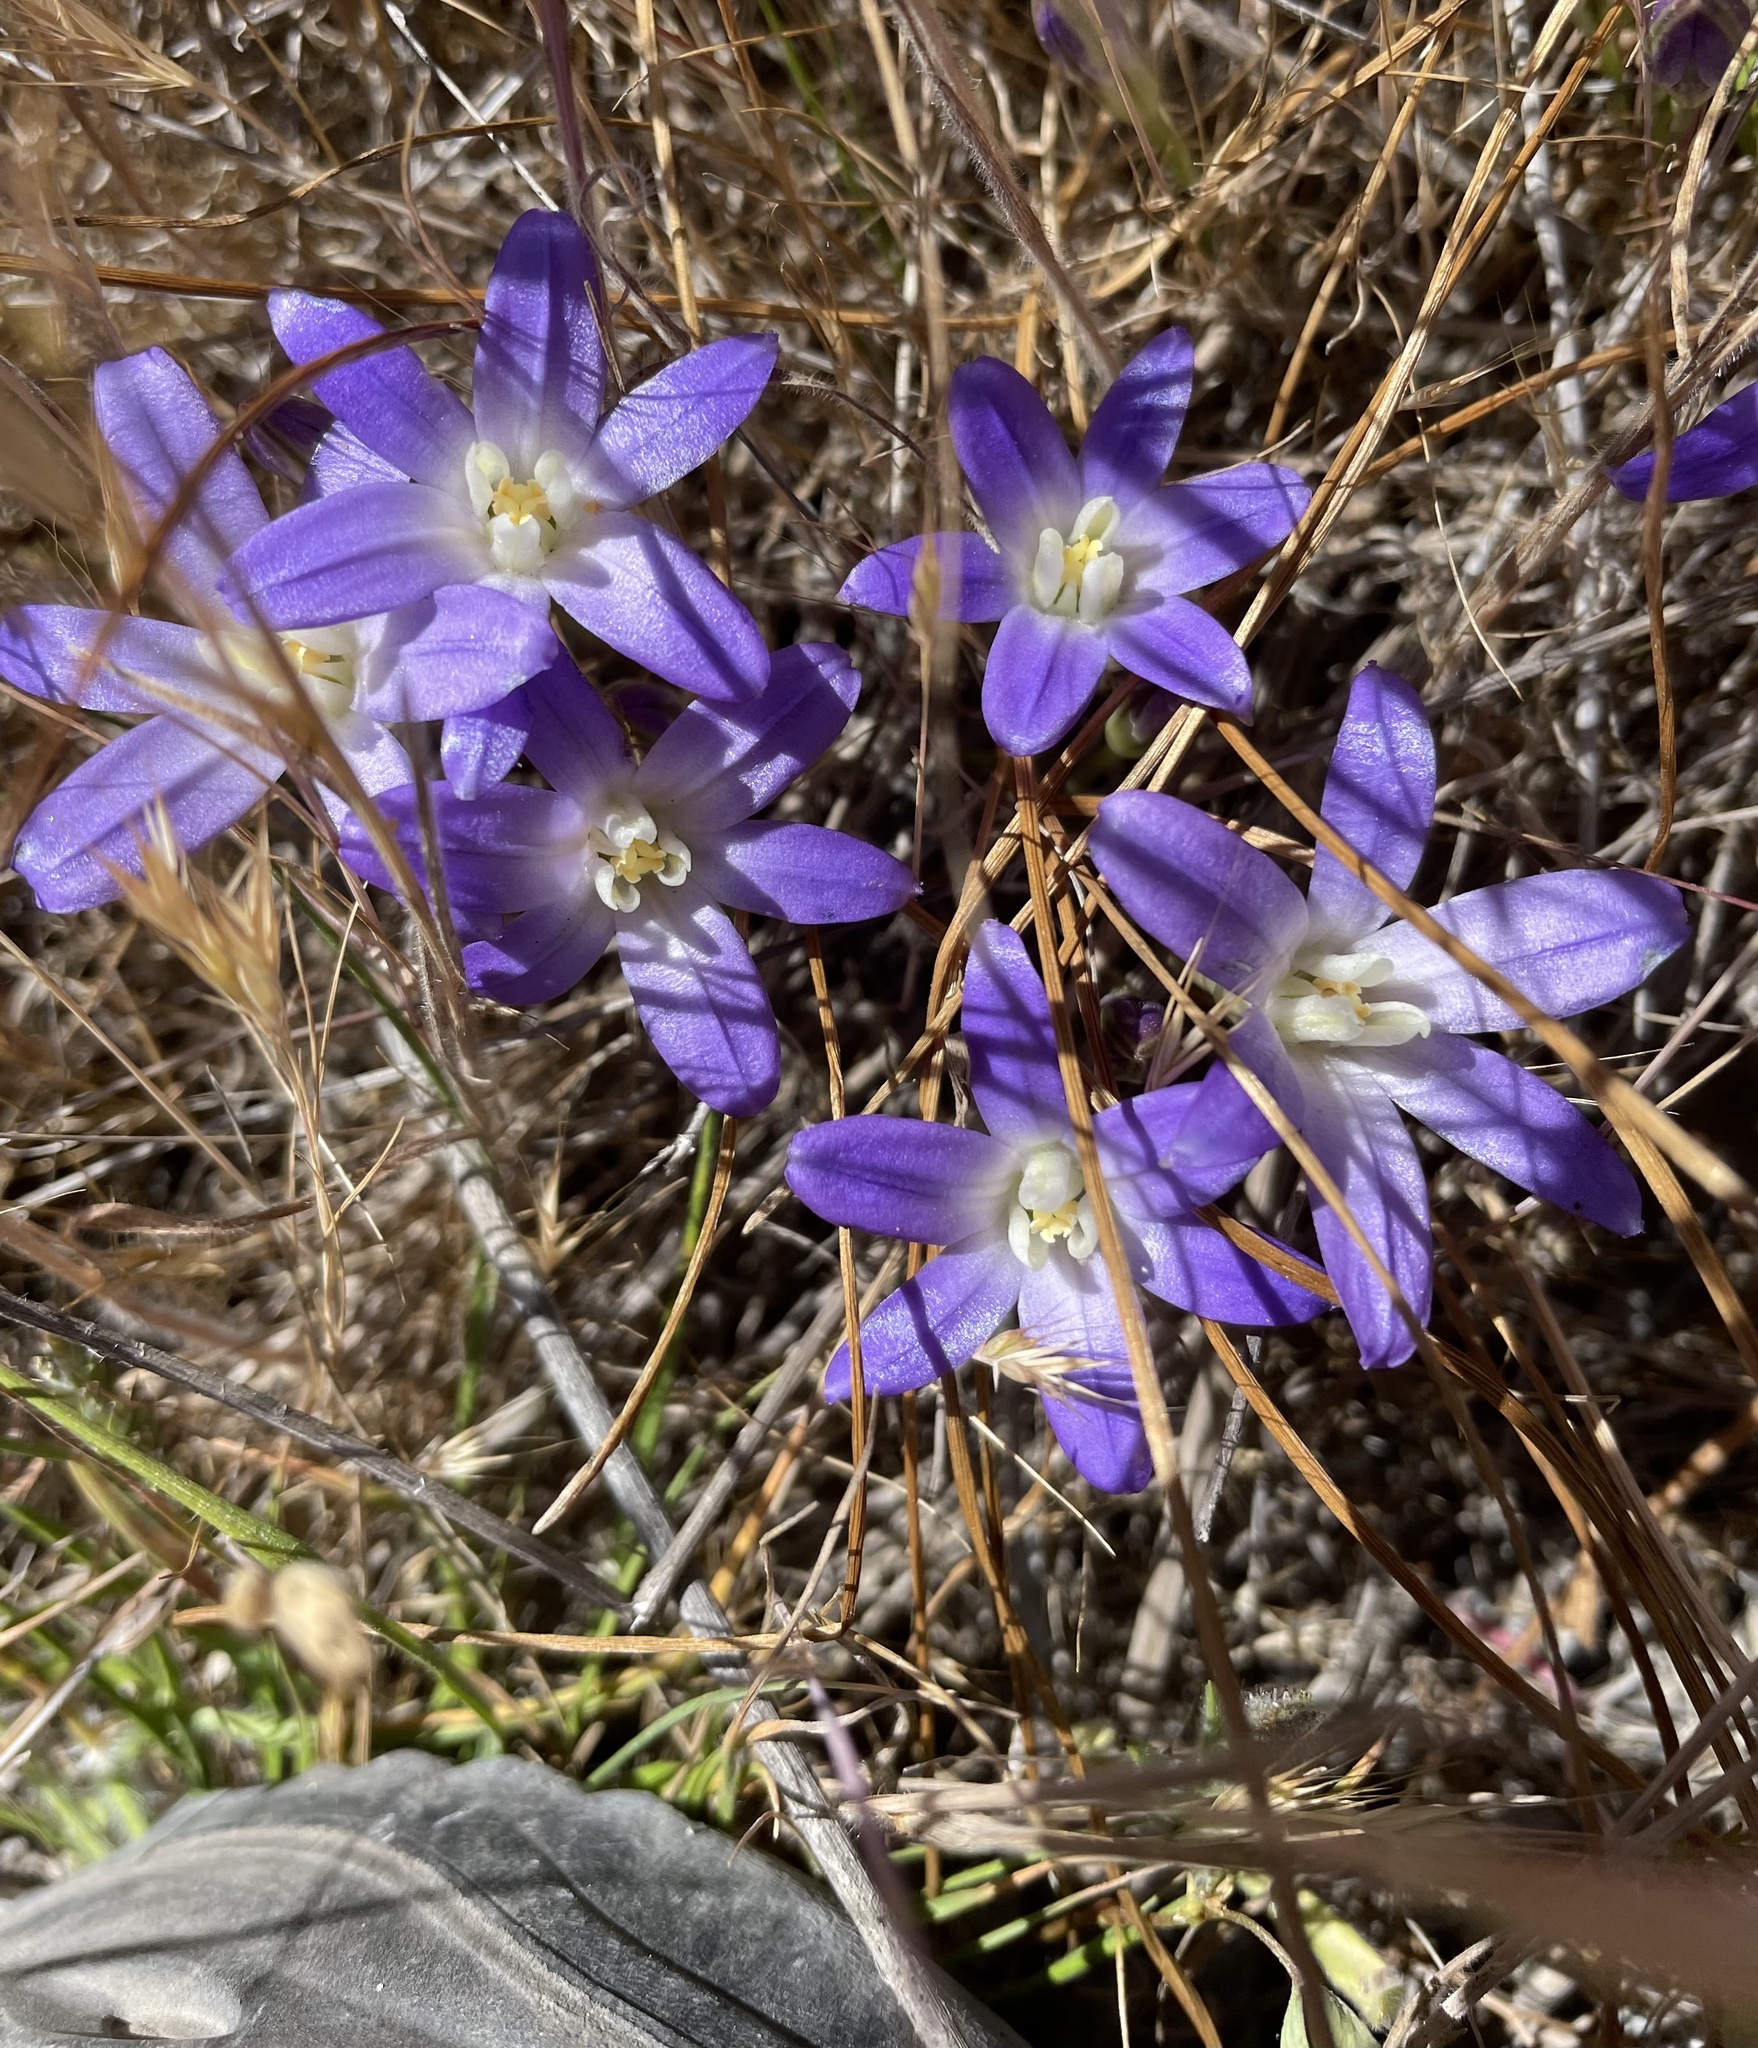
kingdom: Plantae
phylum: Tracheophyta
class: Liliopsida
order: Asparagales
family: Asparagaceae
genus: Brodiaea
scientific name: Brodiaea terrestris
